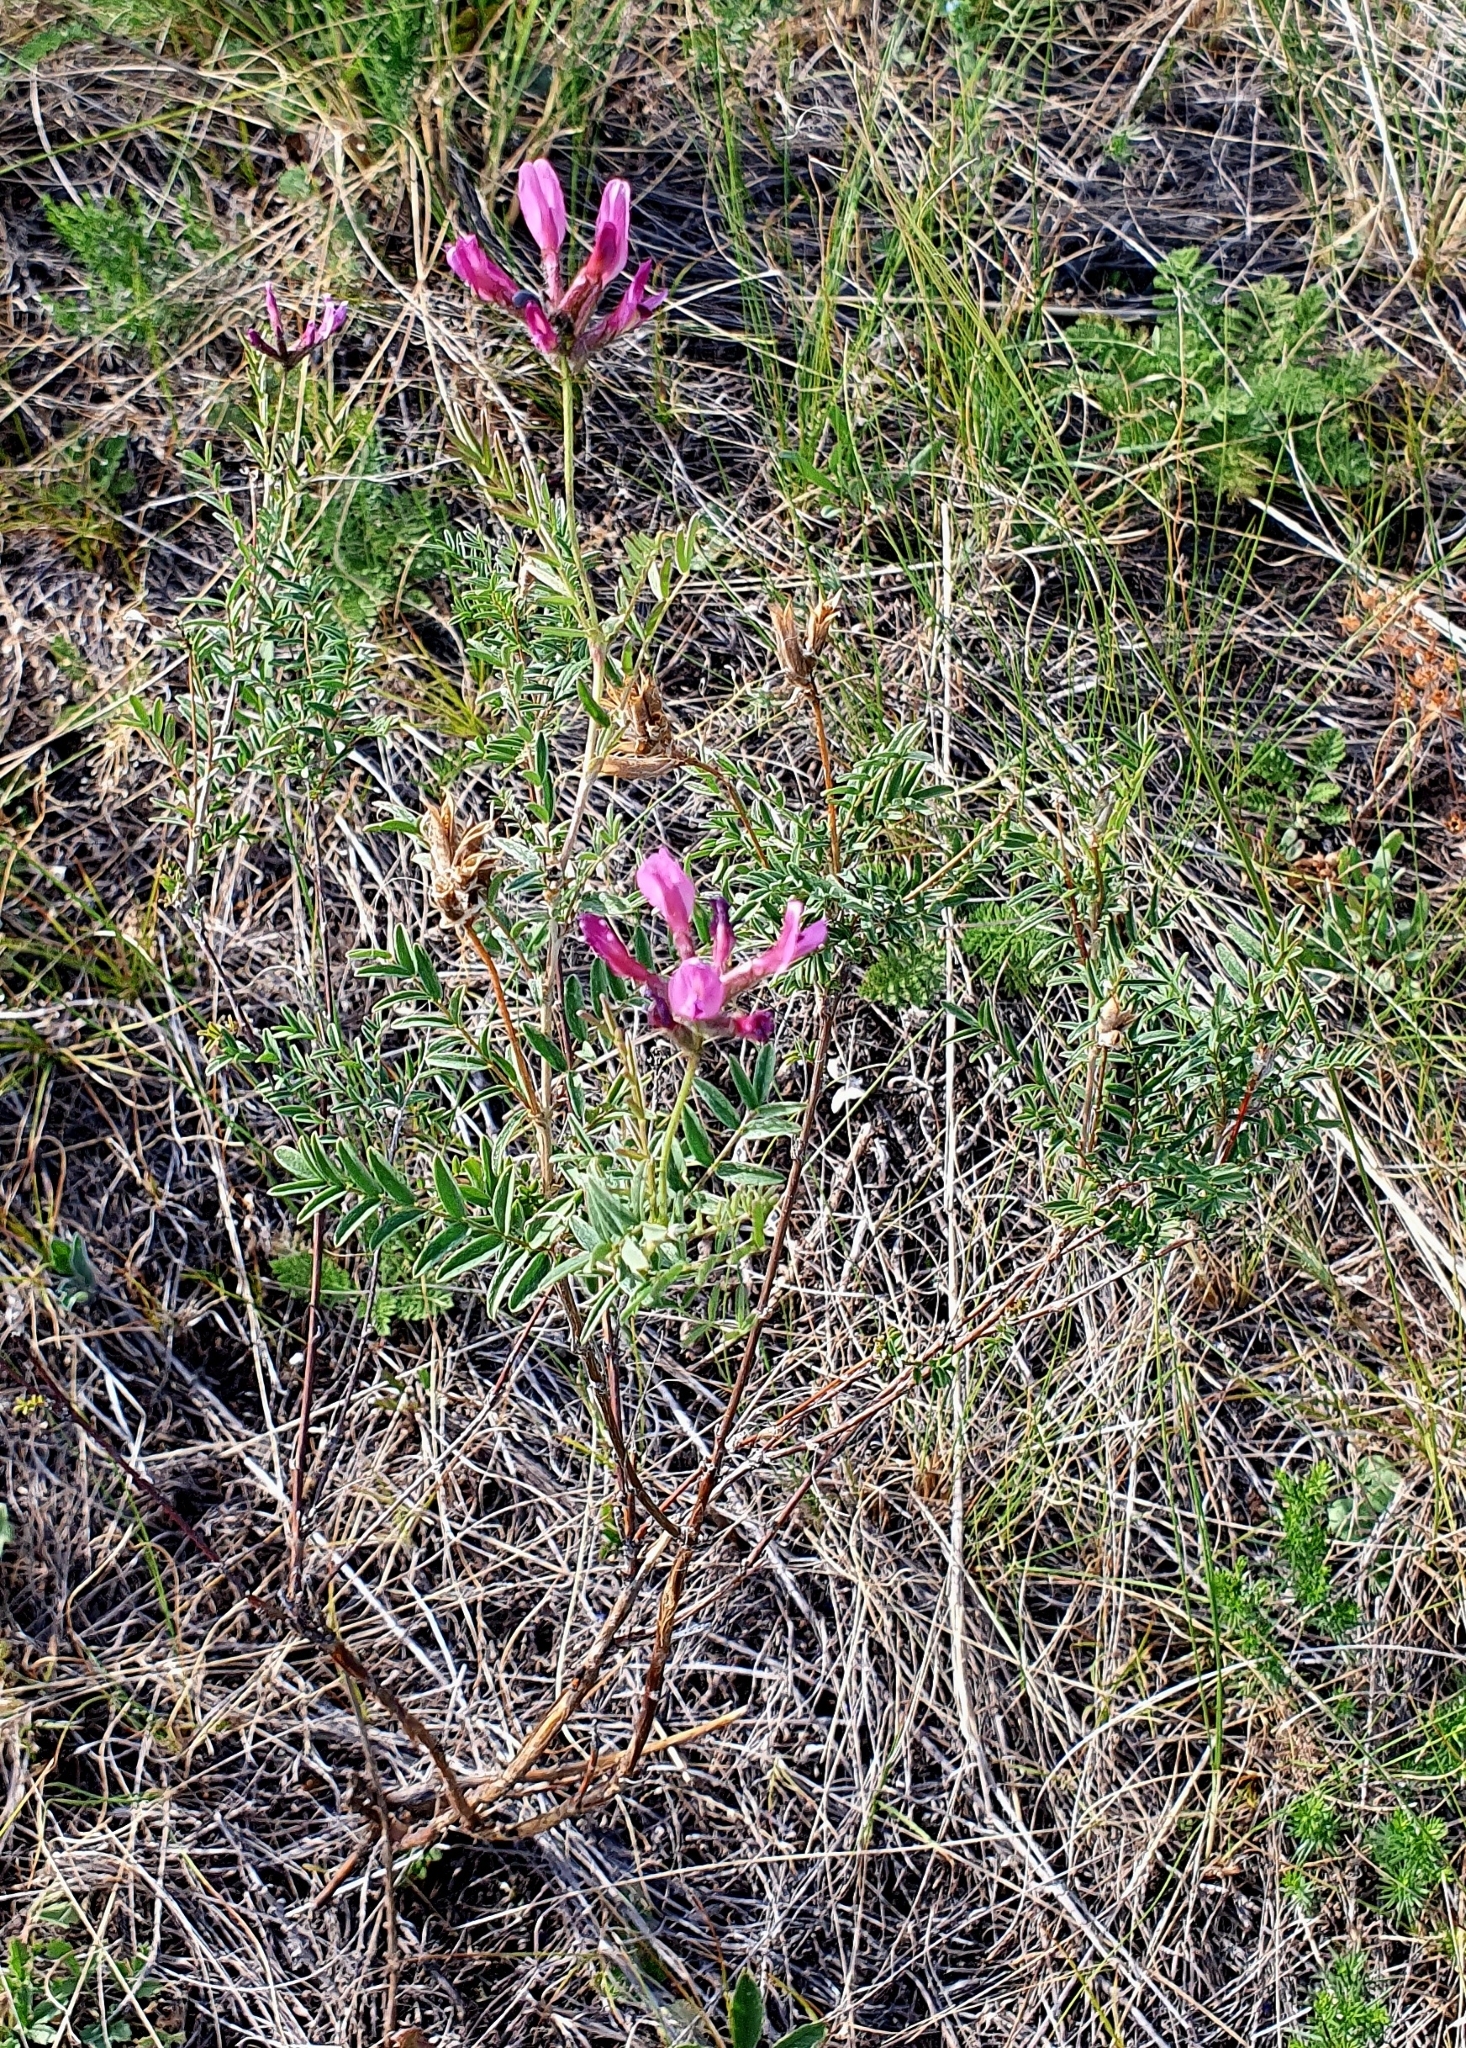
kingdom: Plantae
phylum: Tracheophyta
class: Magnoliopsida
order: Fabales
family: Fabaceae
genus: Astragalus
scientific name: Astragalus cornutus
